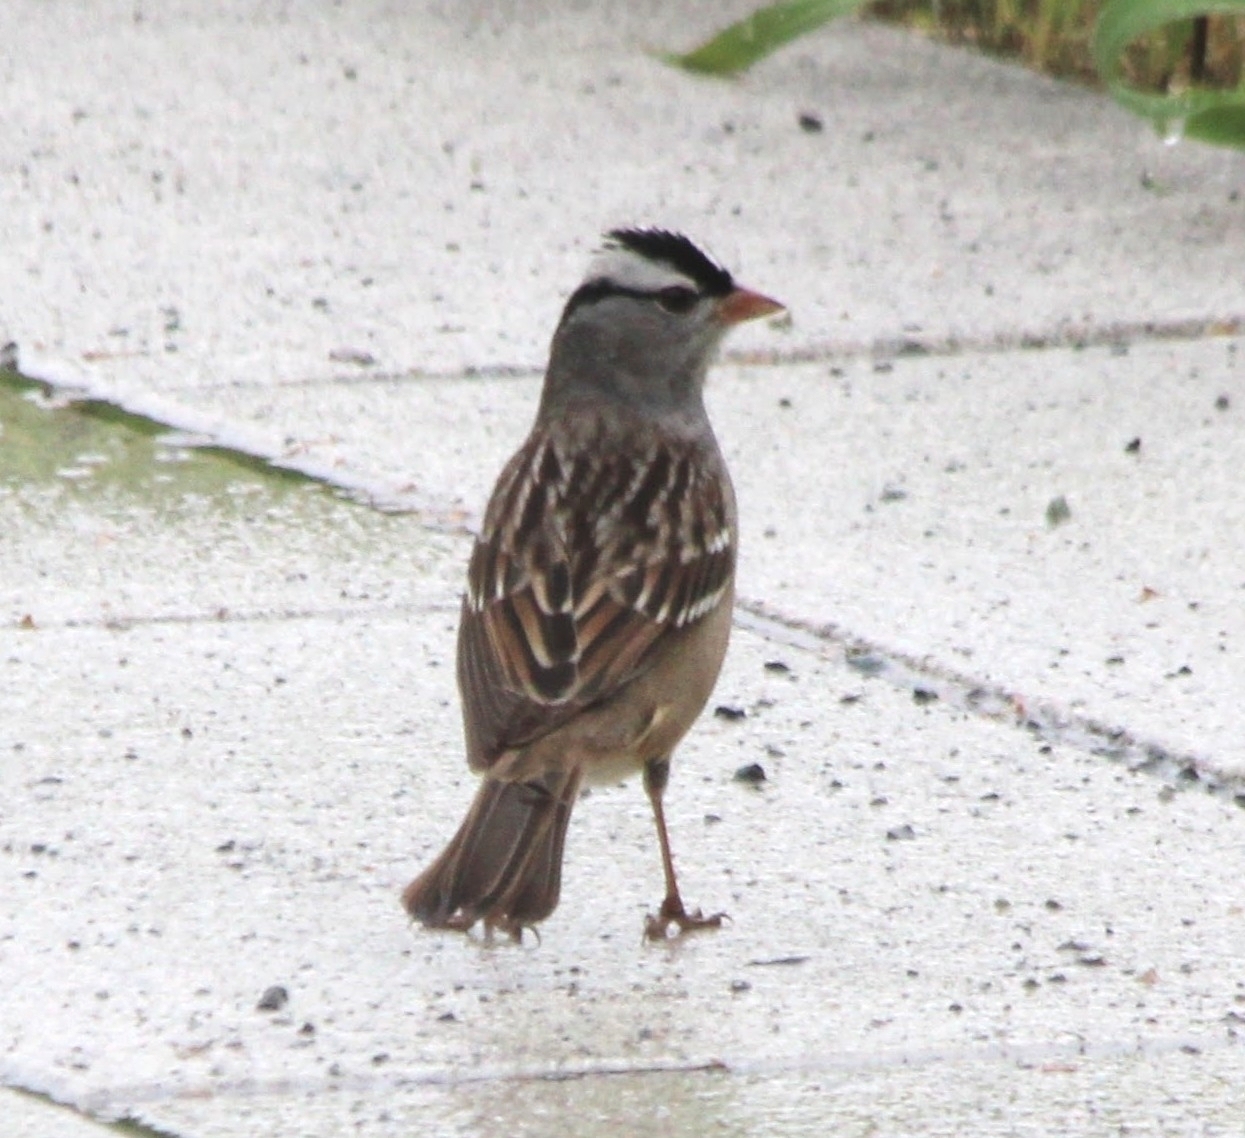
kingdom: Animalia
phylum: Chordata
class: Aves
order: Passeriformes
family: Passerellidae
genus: Zonotrichia
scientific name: Zonotrichia leucophrys
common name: White-crowned sparrow
